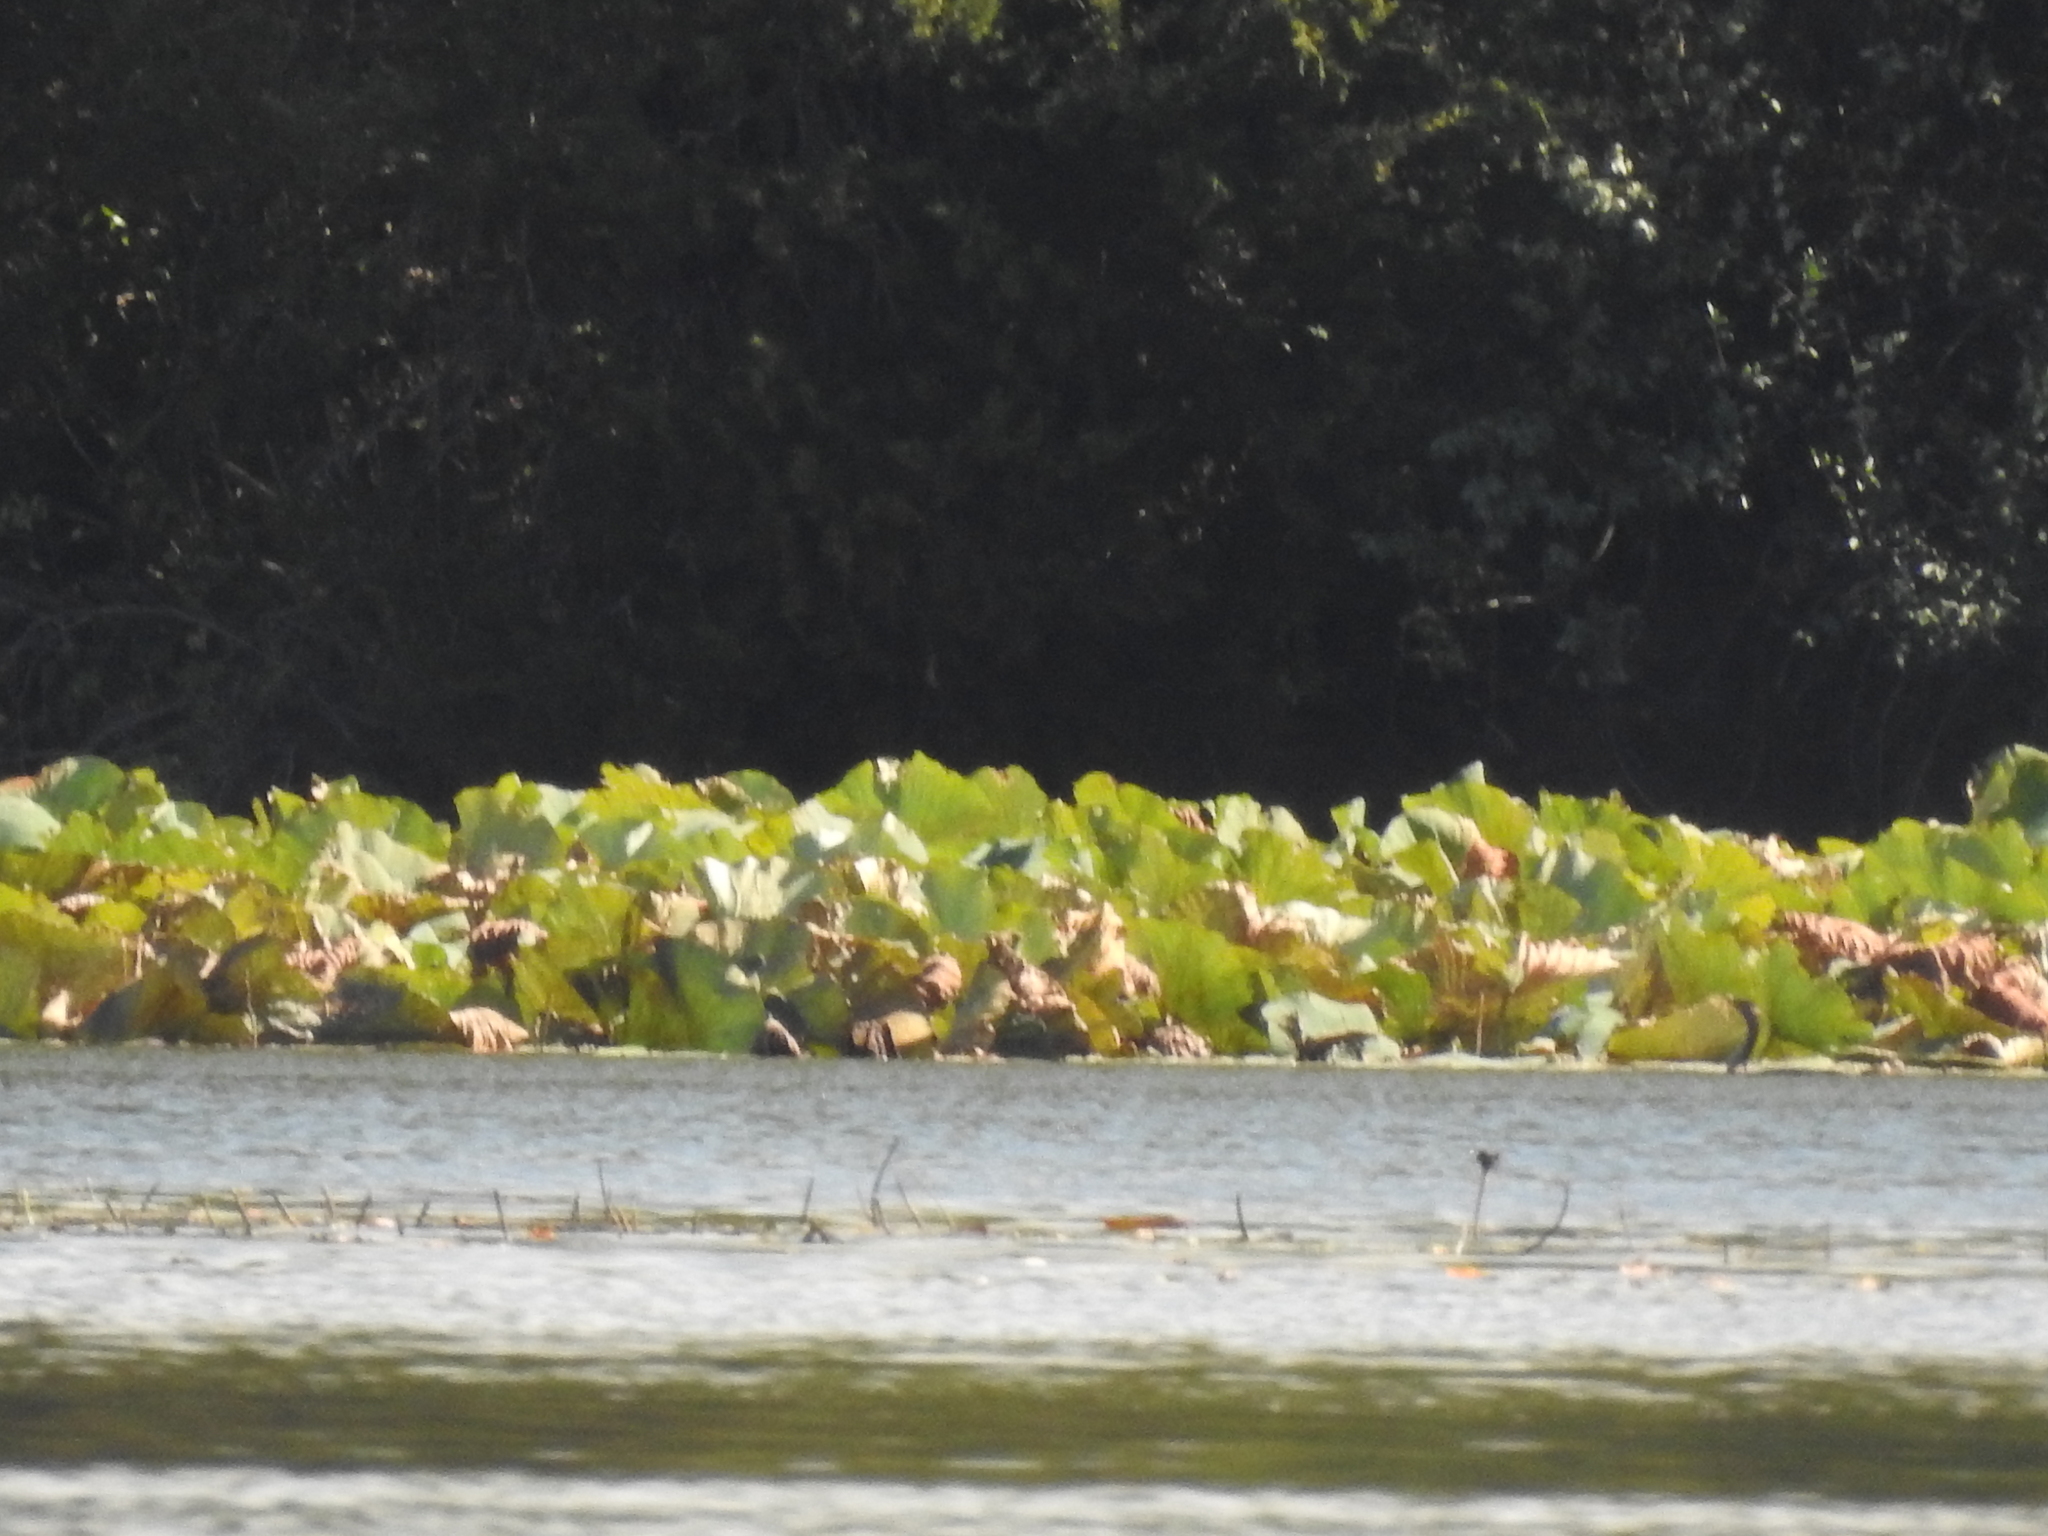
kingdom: Plantae
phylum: Tracheophyta
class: Magnoliopsida
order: Proteales
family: Nelumbonaceae
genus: Nelumbo
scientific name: Nelumbo lutea
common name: American lotus
